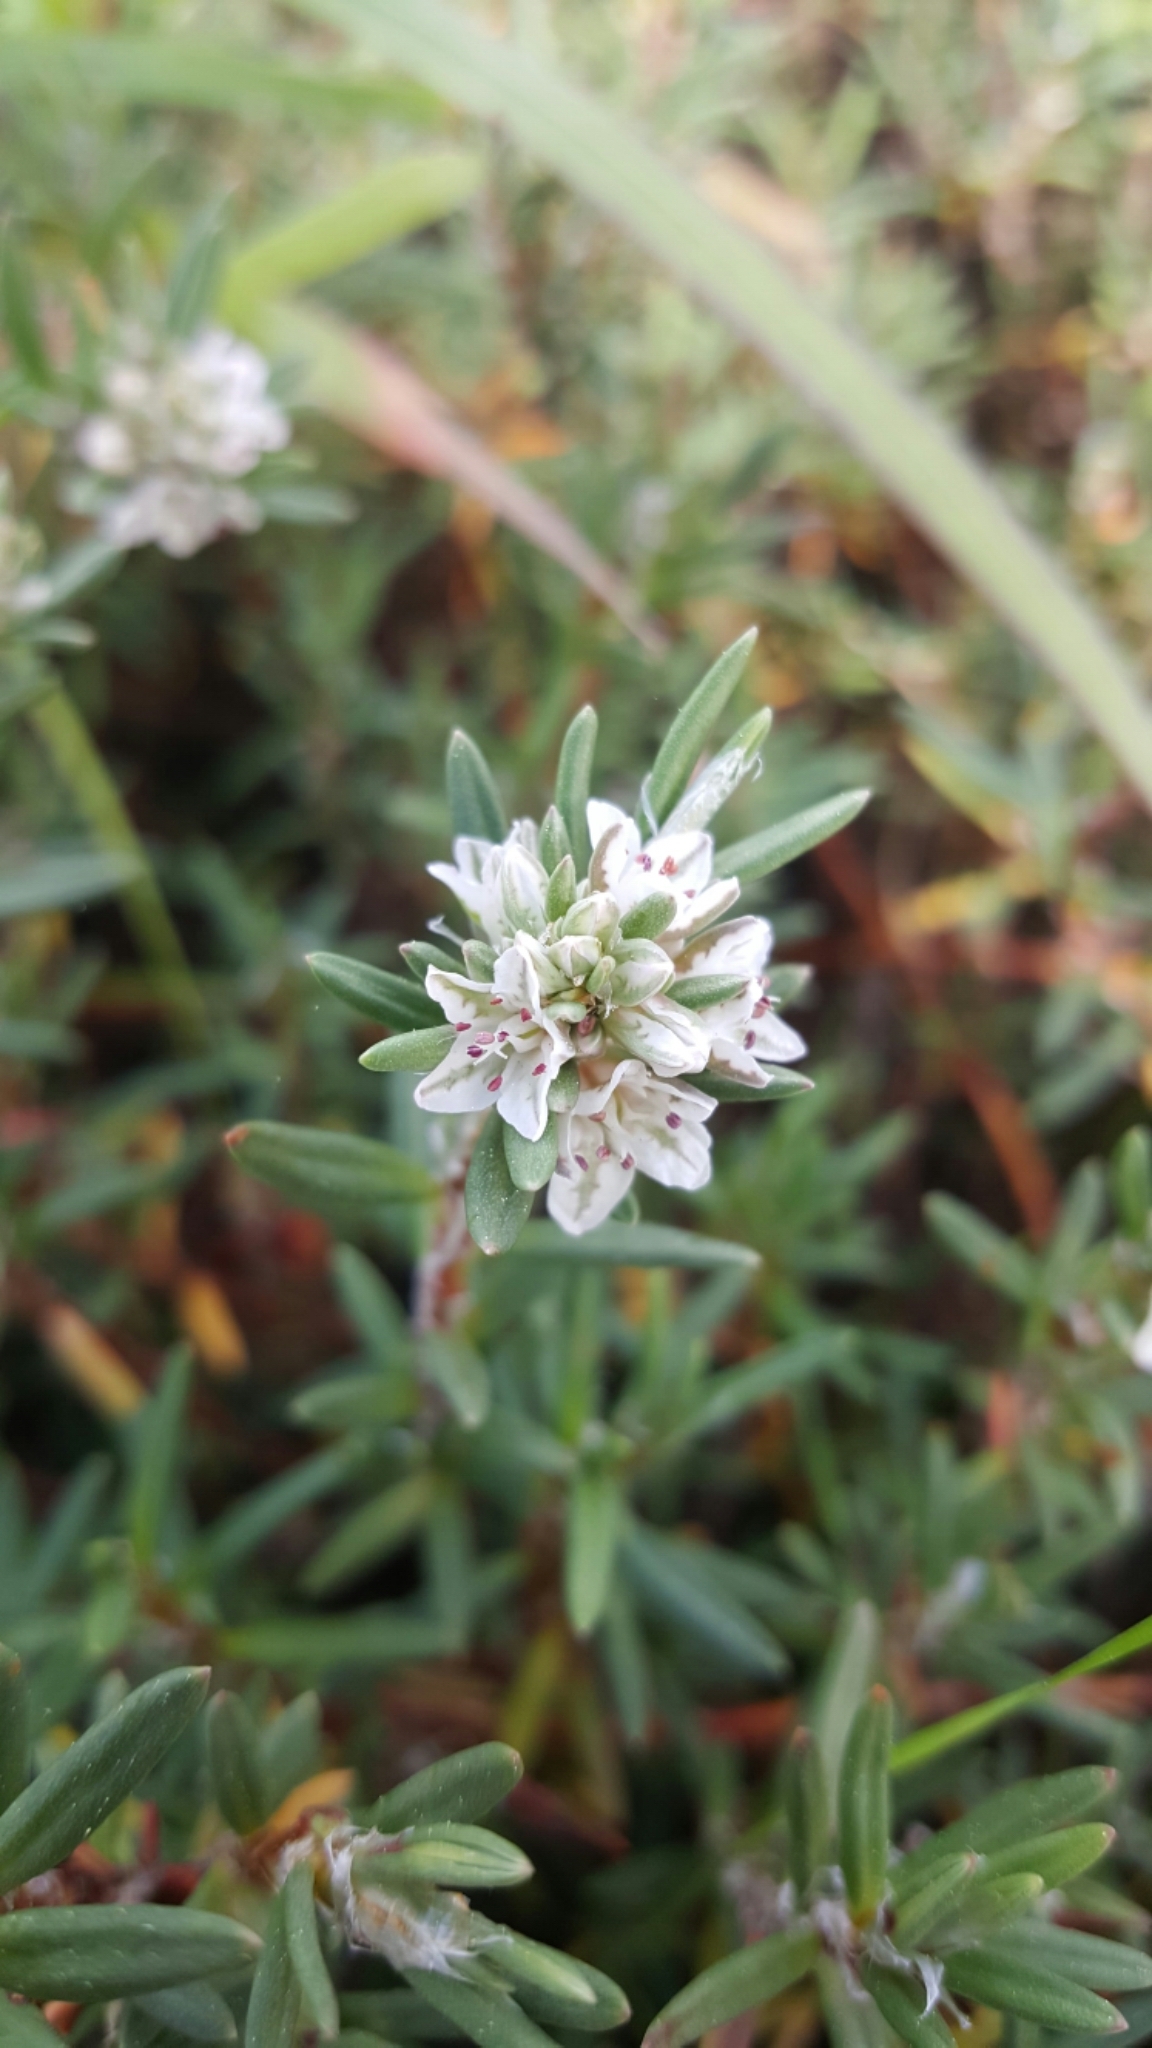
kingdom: Plantae
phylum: Tracheophyta
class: Magnoliopsida
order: Caryophyllales
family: Polygonaceae
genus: Polygonum
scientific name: Polygonum paronychia
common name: Dune knotweed
